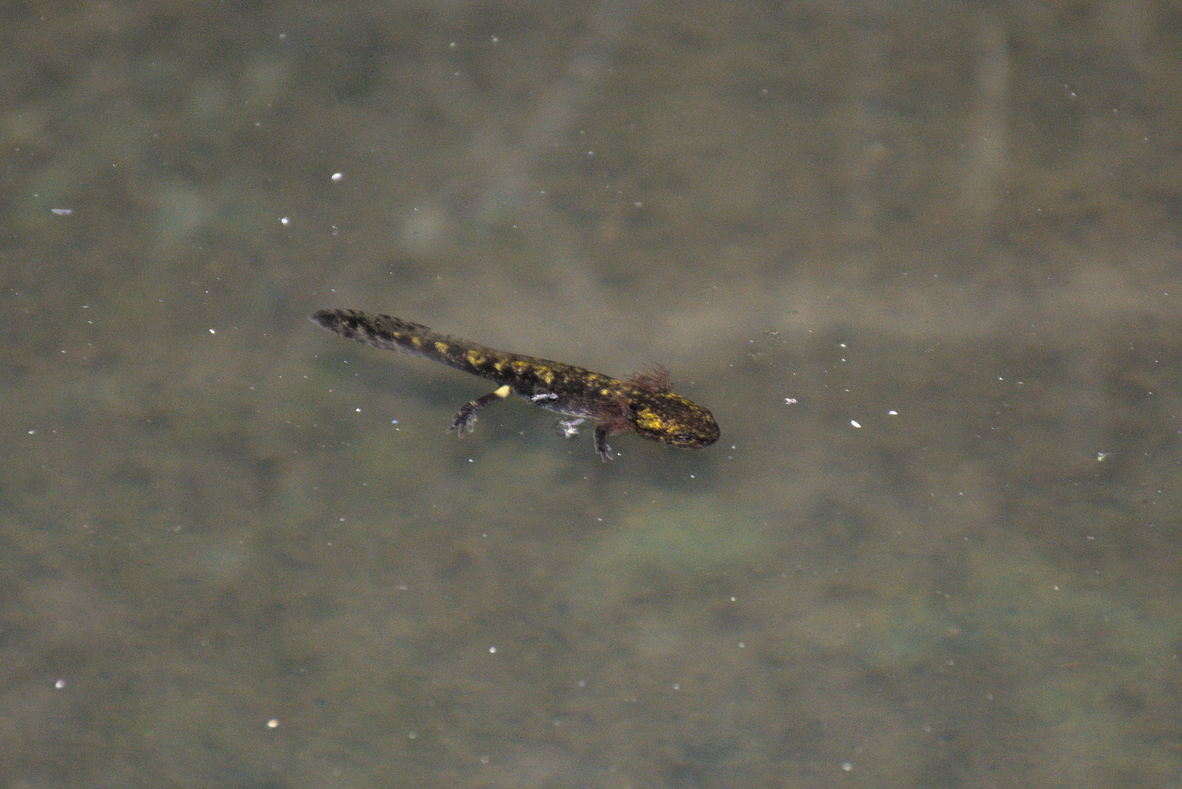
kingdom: Animalia
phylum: Chordata
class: Amphibia
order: Caudata
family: Salamandridae
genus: Salamandra
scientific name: Salamandra salamandra
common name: Fire salamander
